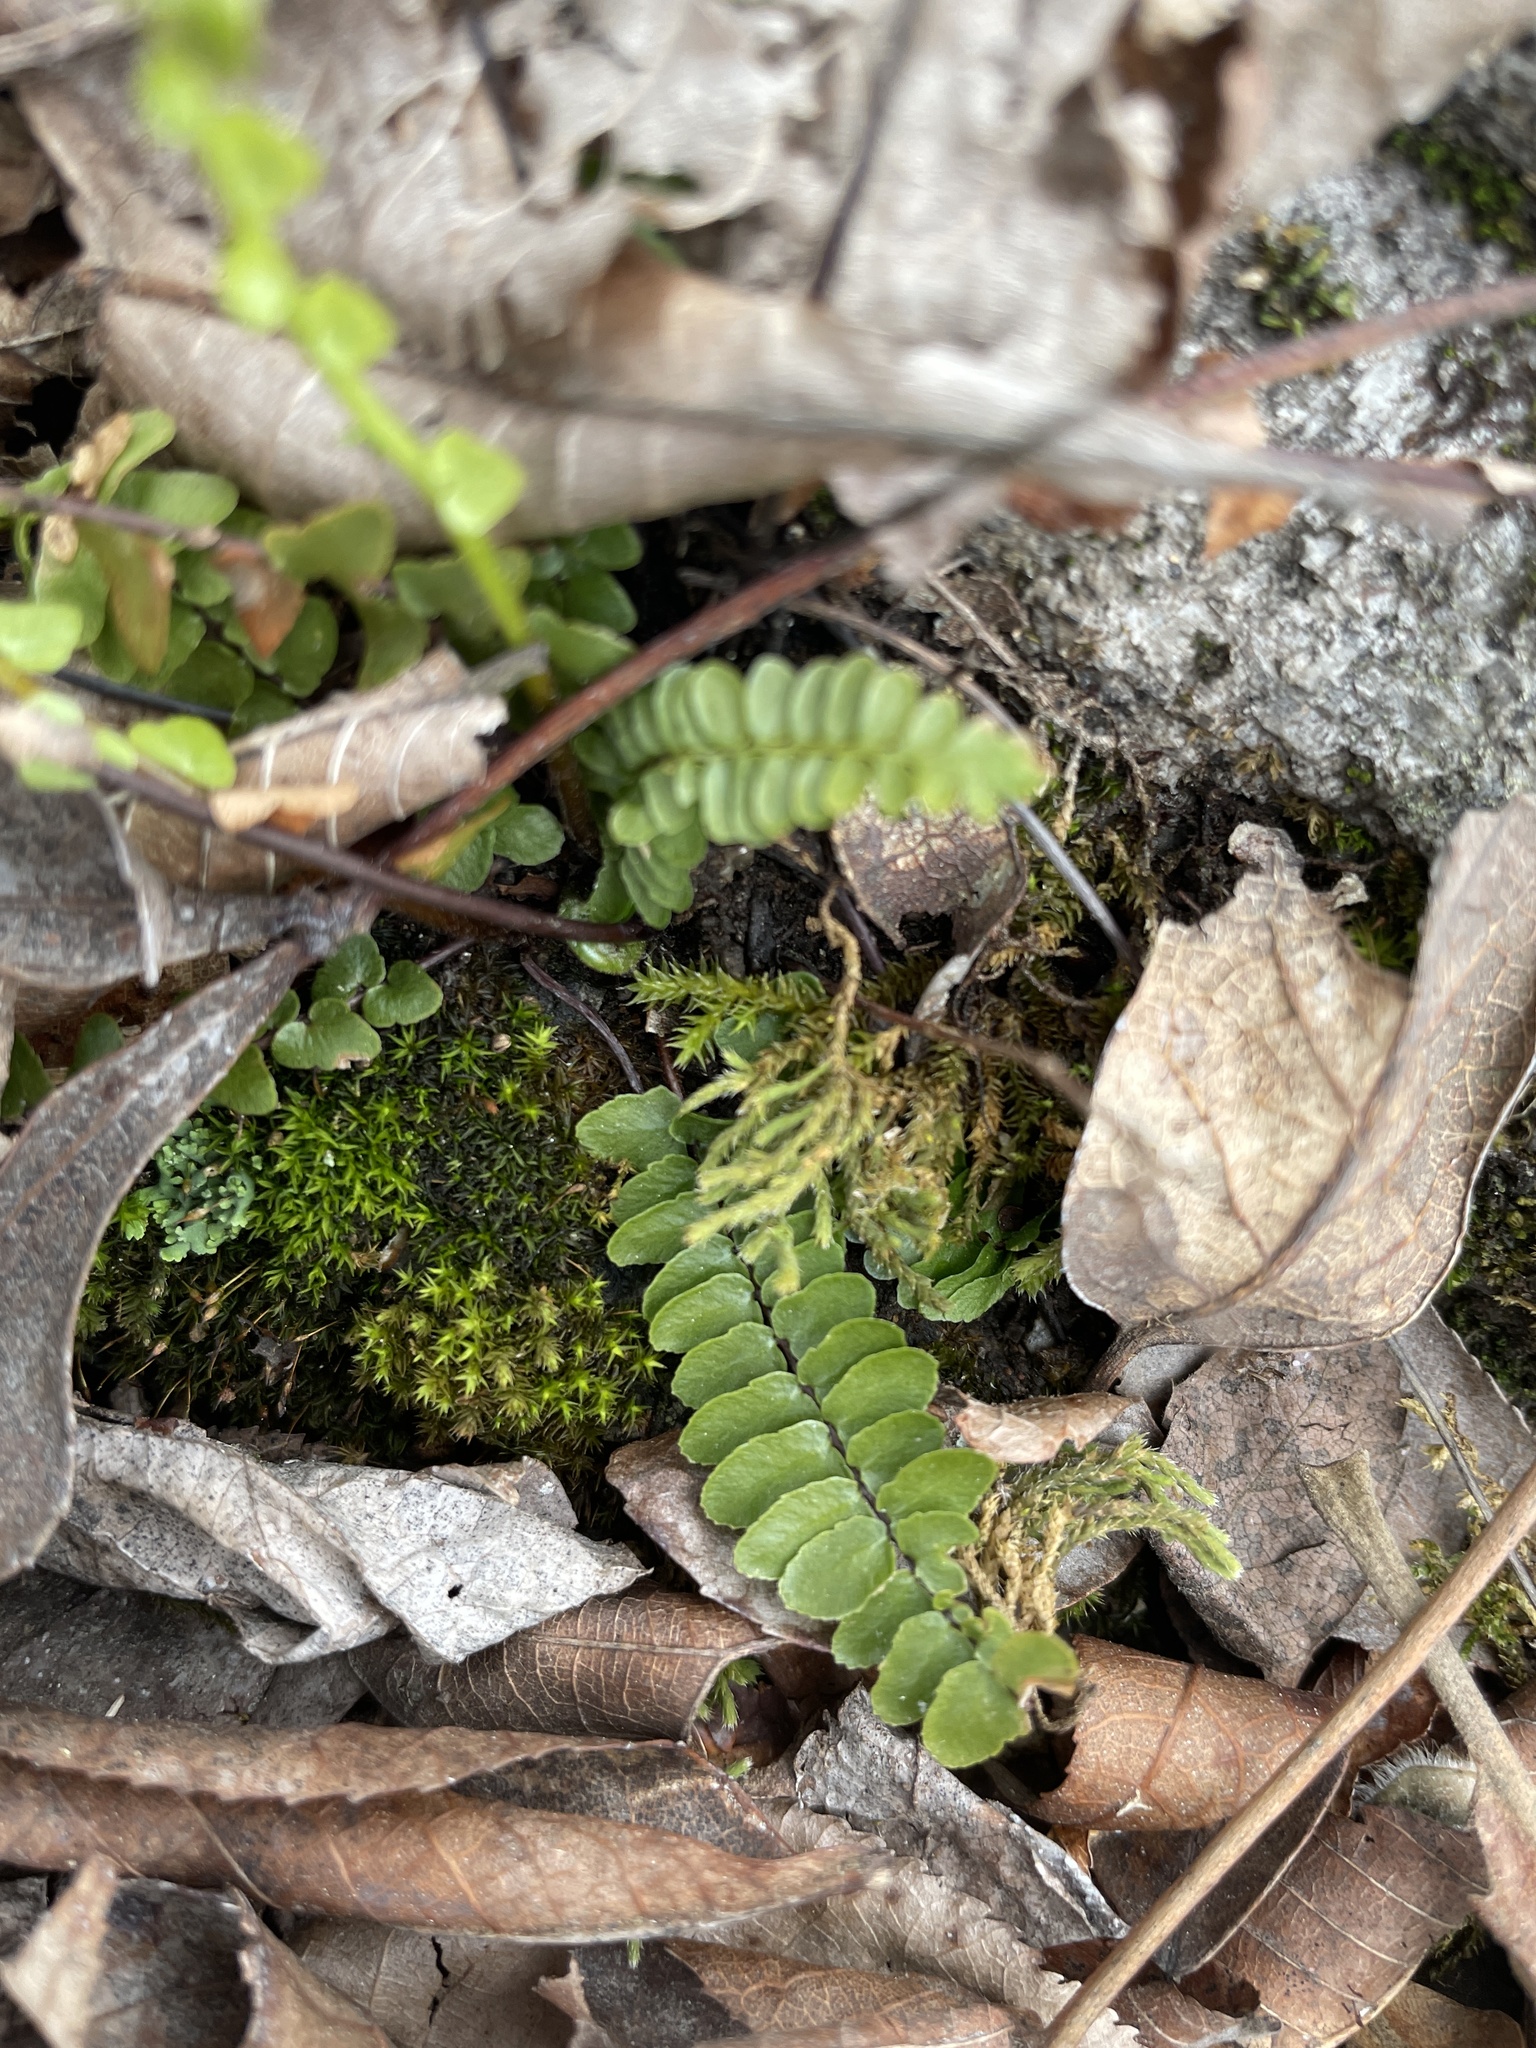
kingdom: Plantae
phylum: Tracheophyta
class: Polypodiopsida
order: Polypodiales
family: Aspleniaceae
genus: Asplenium
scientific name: Asplenium platyneuron
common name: Ebony spleenwort
